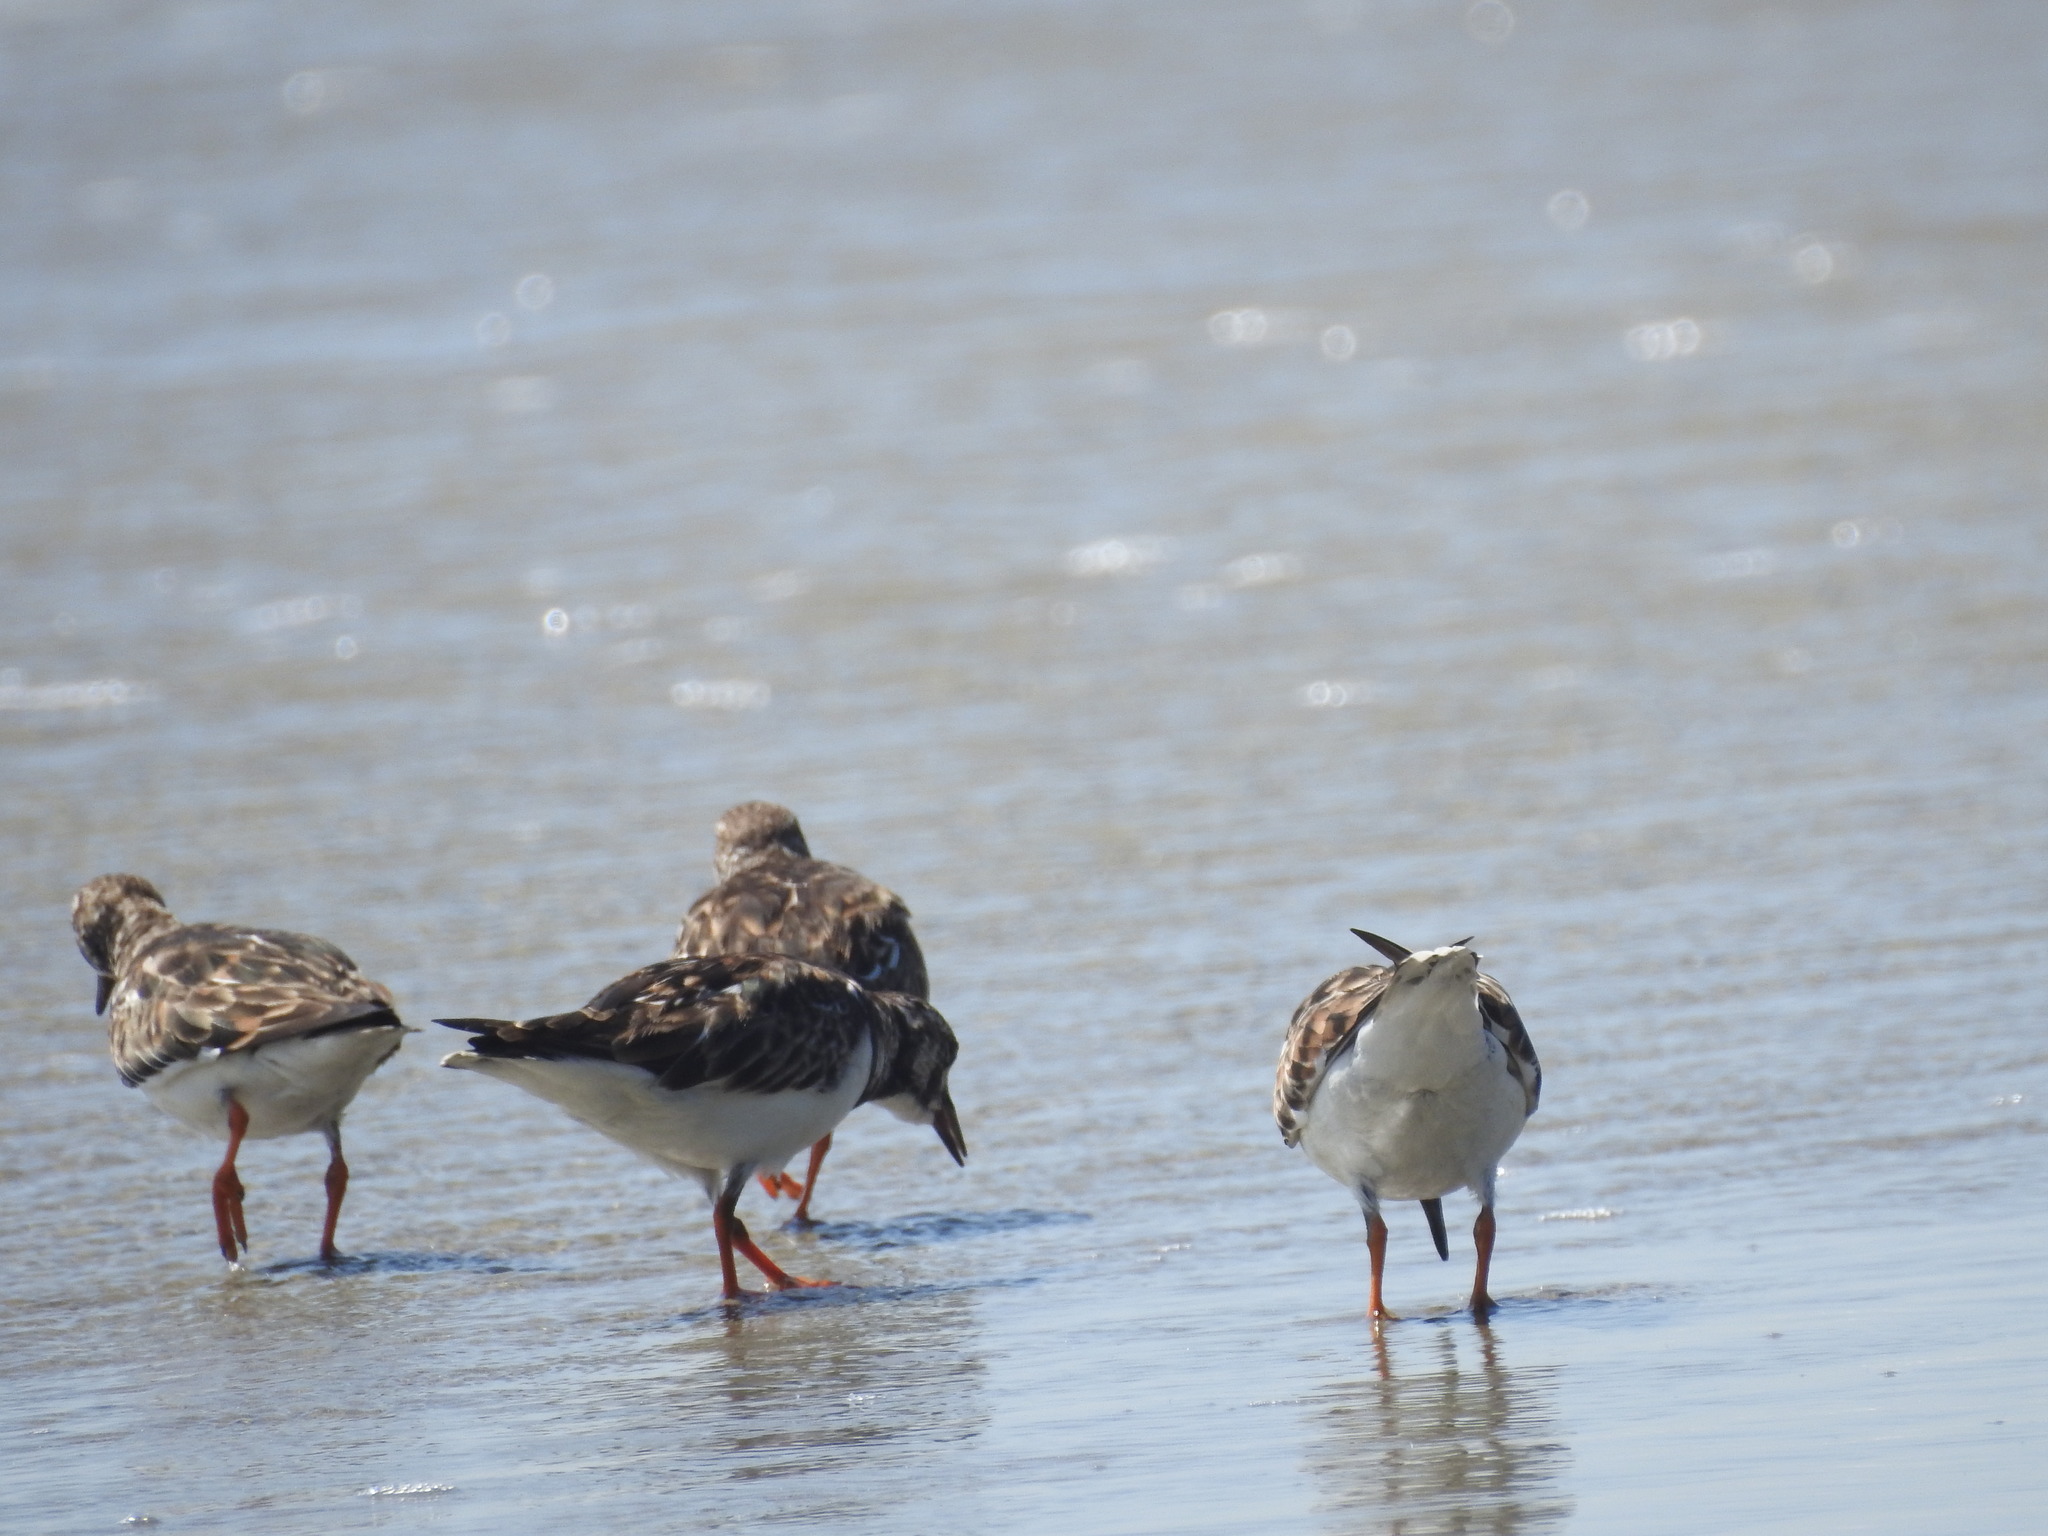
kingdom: Animalia
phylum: Chordata
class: Aves
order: Charadriiformes
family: Scolopacidae
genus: Arenaria
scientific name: Arenaria interpres
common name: Ruddy turnstone
